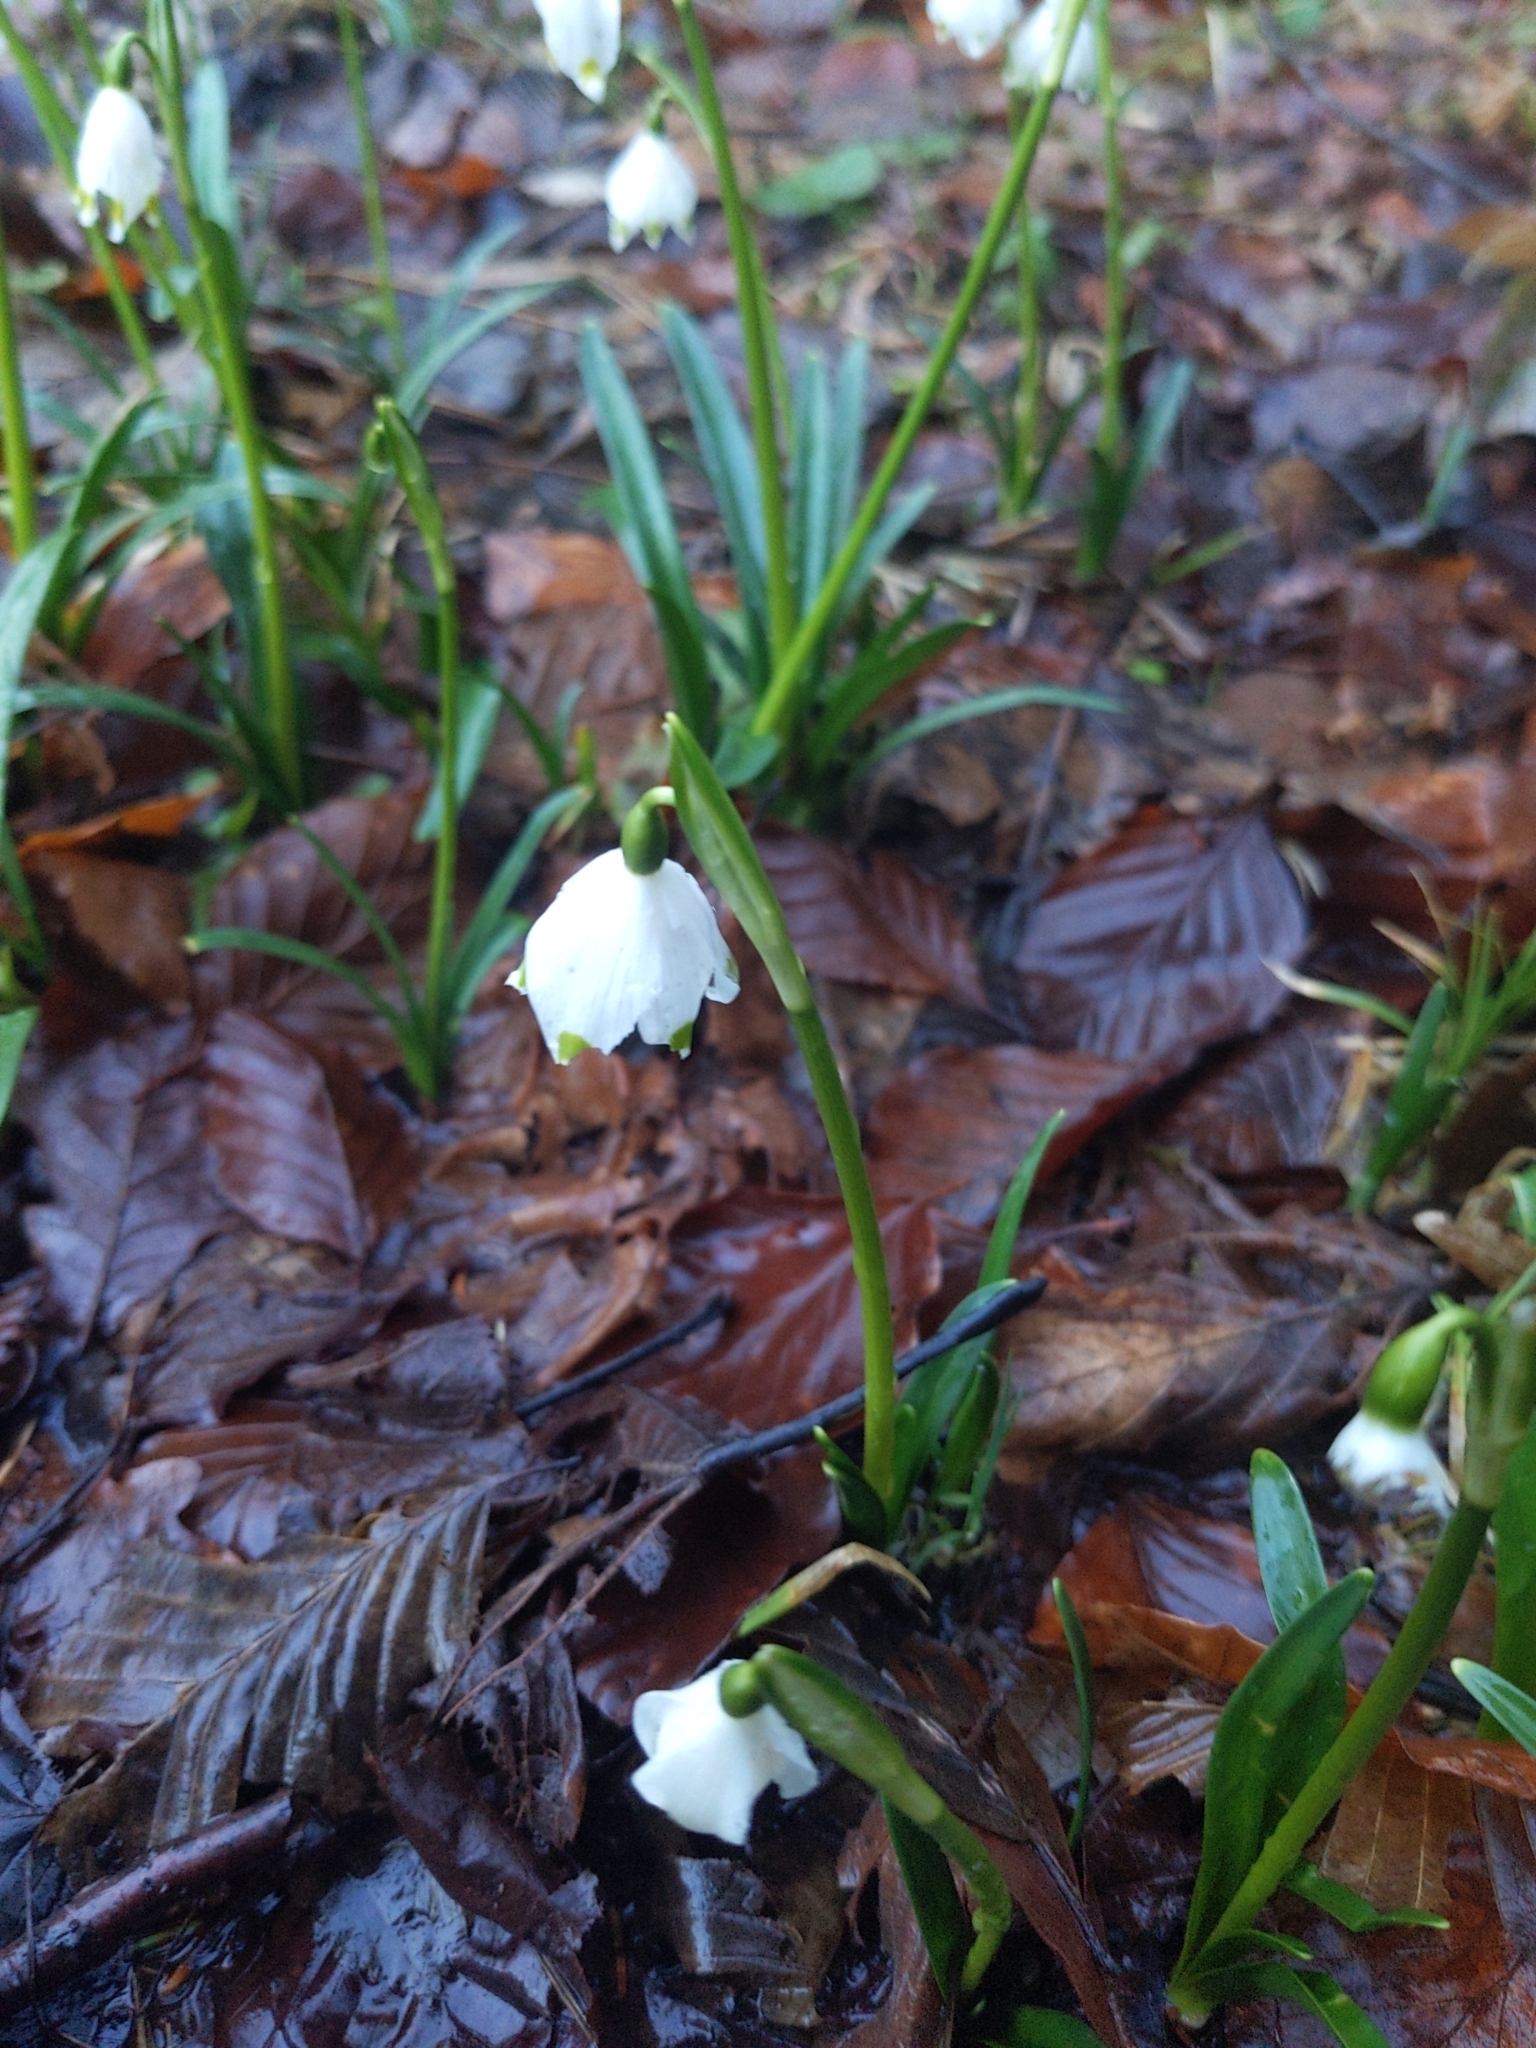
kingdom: Plantae
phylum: Tracheophyta
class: Liliopsida
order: Asparagales
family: Amaryllidaceae
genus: Leucojum
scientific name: Leucojum vernum
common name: Spring snowflake
